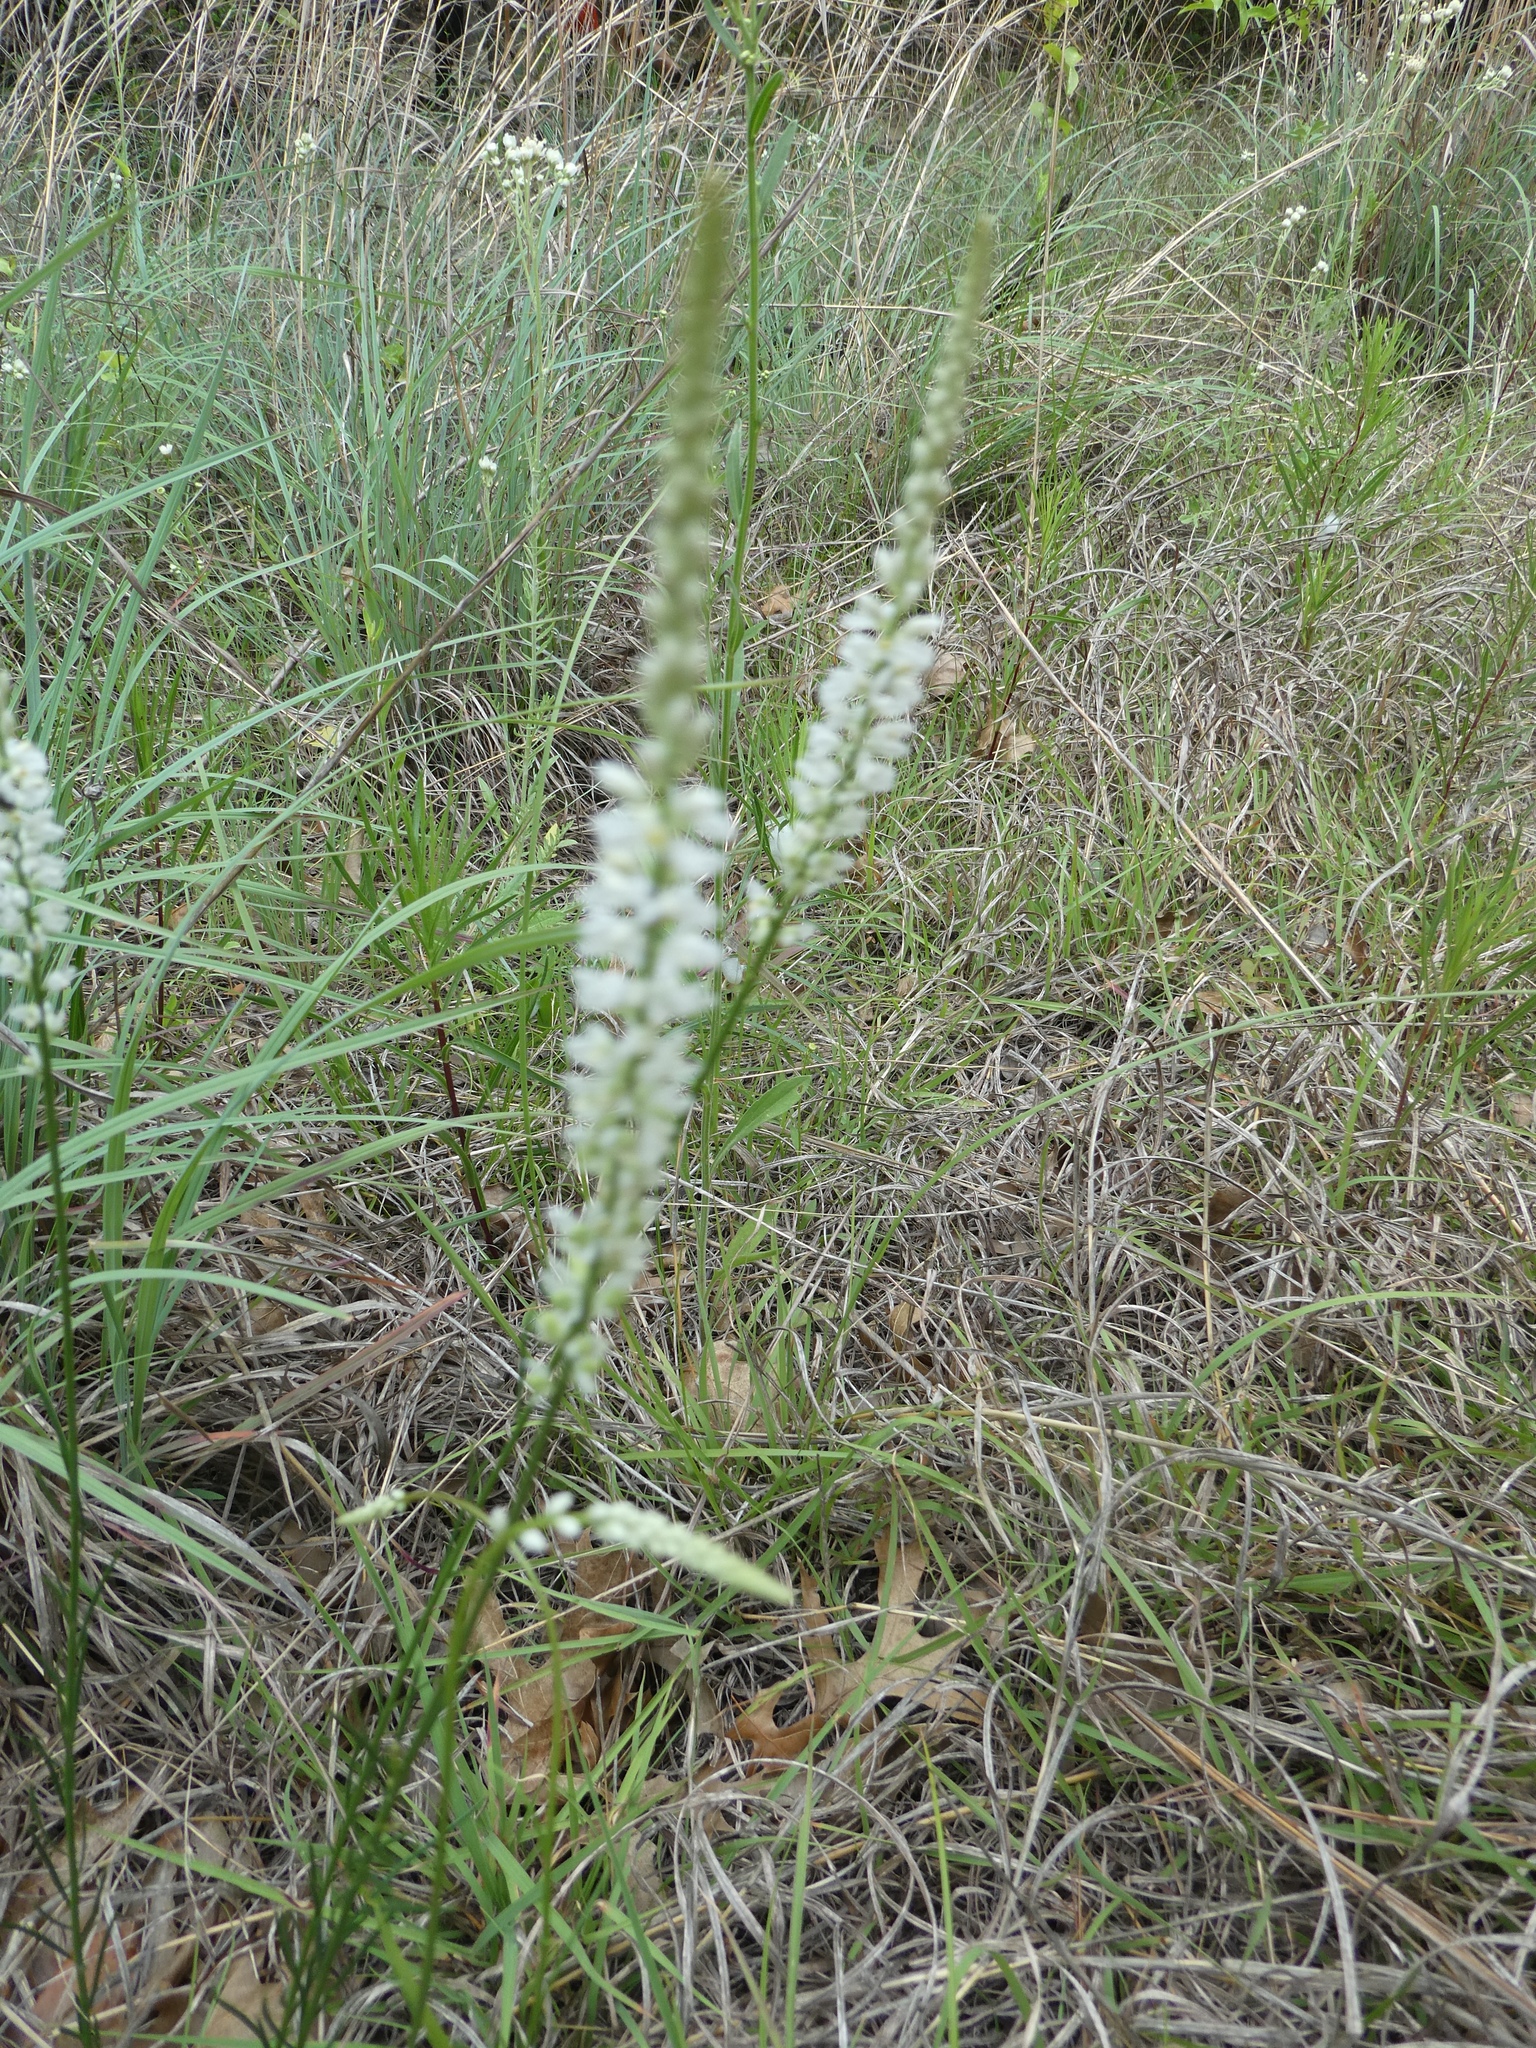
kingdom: Plantae
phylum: Tracheophyta
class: Magnoliopsida
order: Fabales
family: Polygalaceae
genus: Polygala
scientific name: Polygala alba
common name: White milkwort
